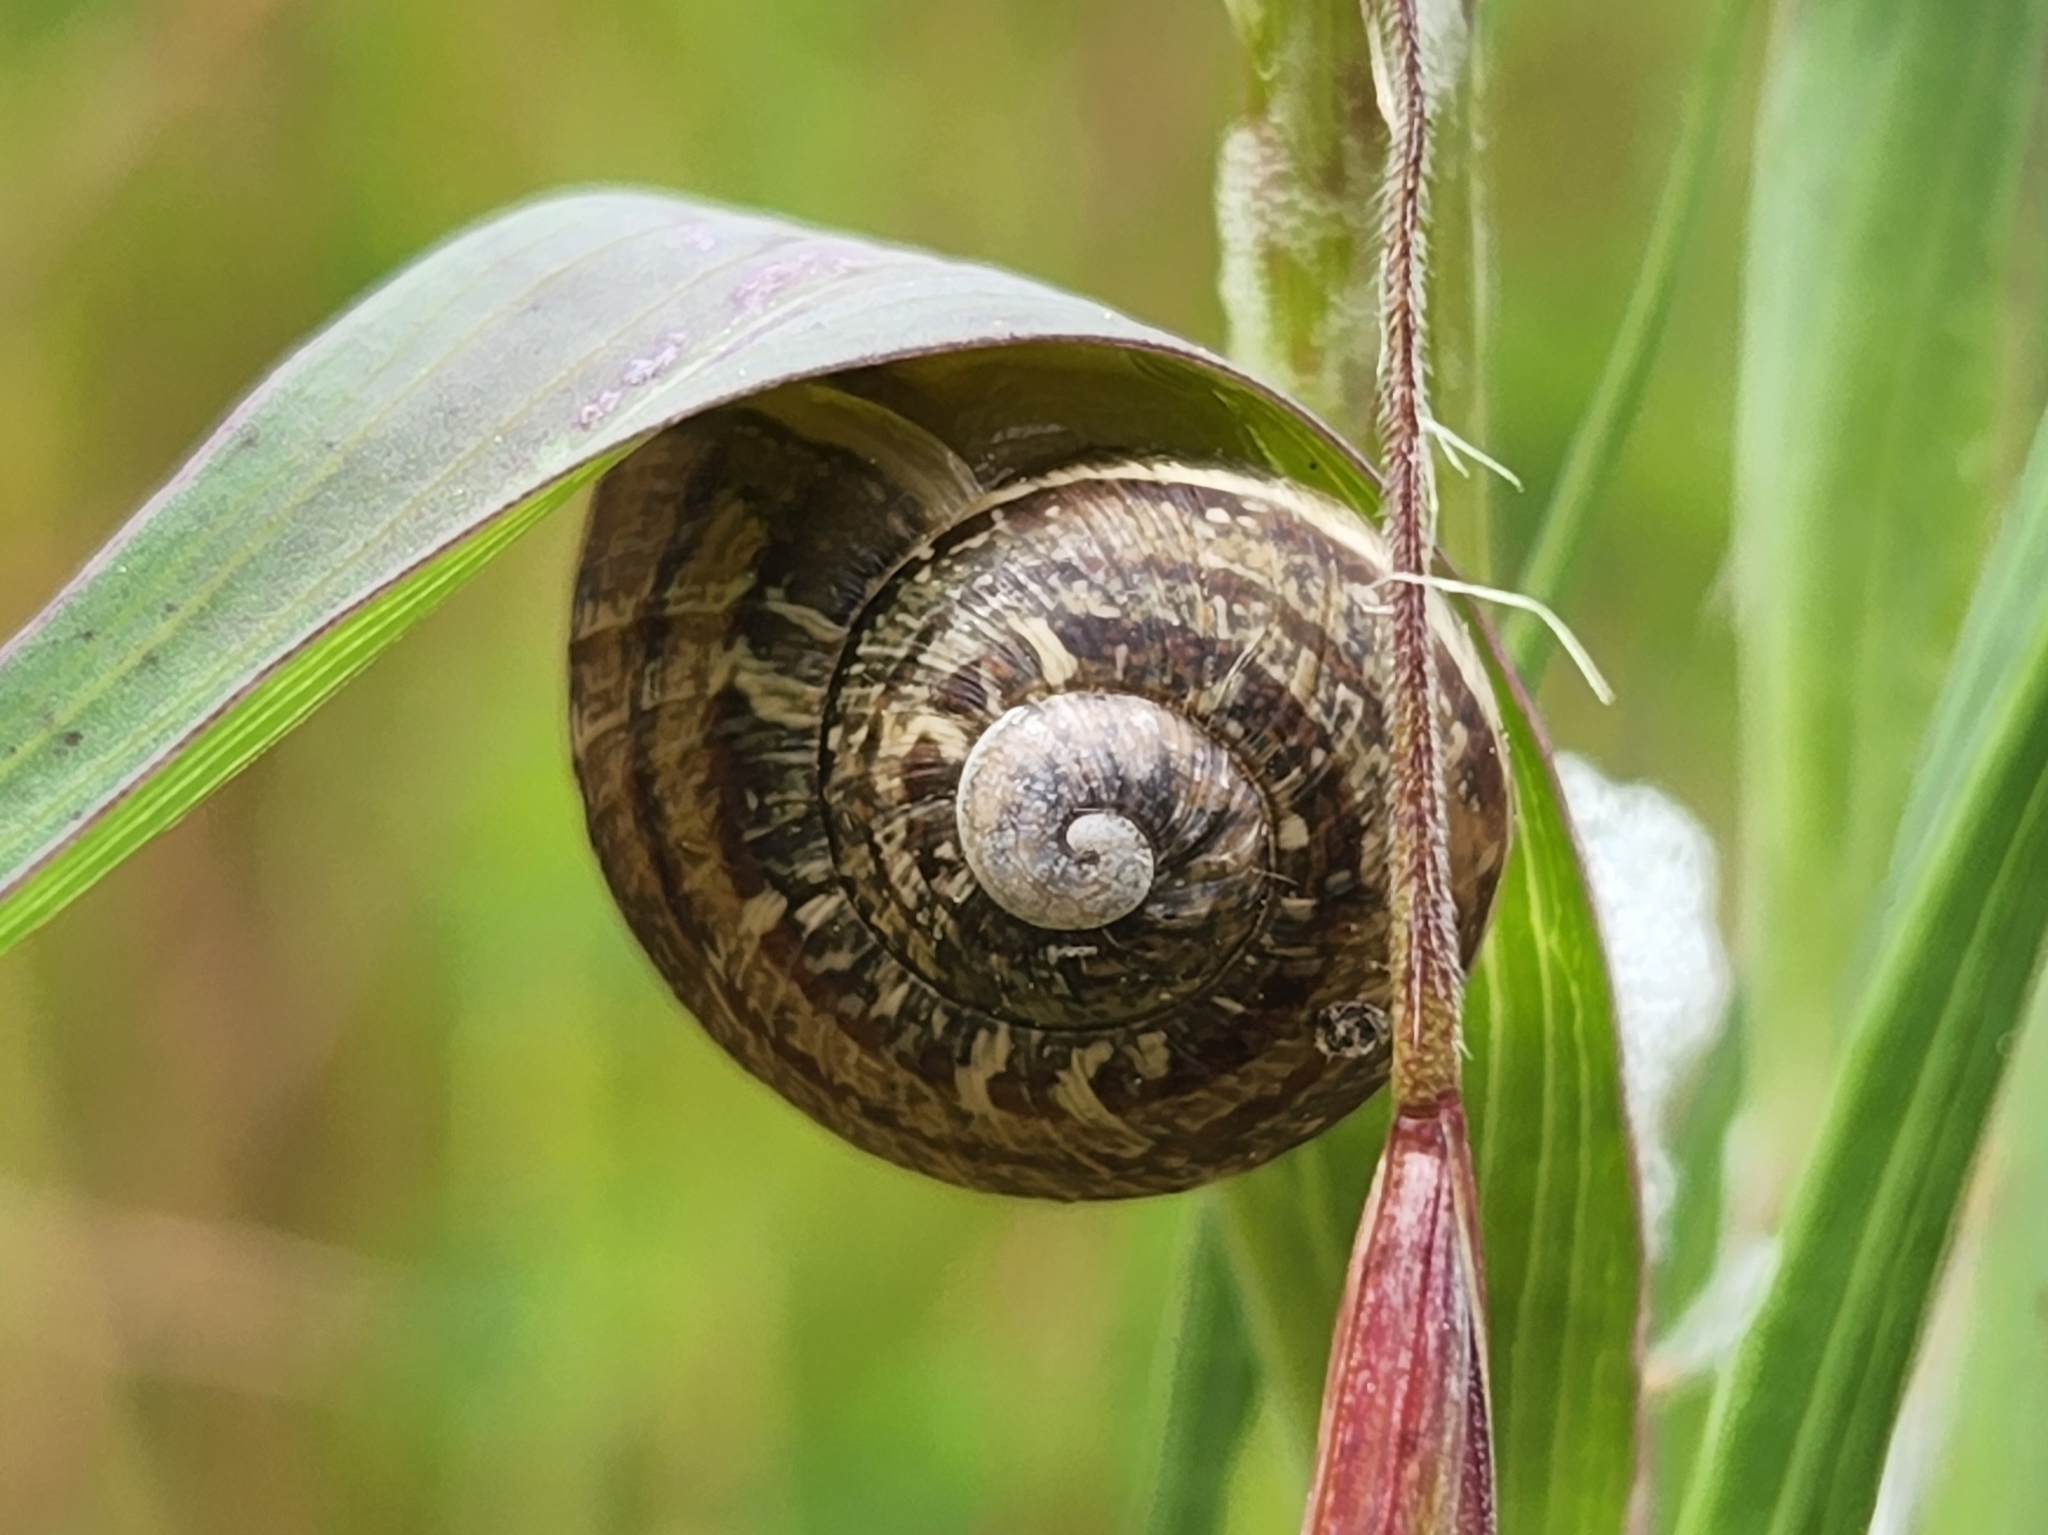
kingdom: Animalia
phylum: Mollusca
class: Gastropoda
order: Stylommatophora
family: Helicidae
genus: Cornu
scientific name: Cornu aspersum
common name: Brown garden snail
